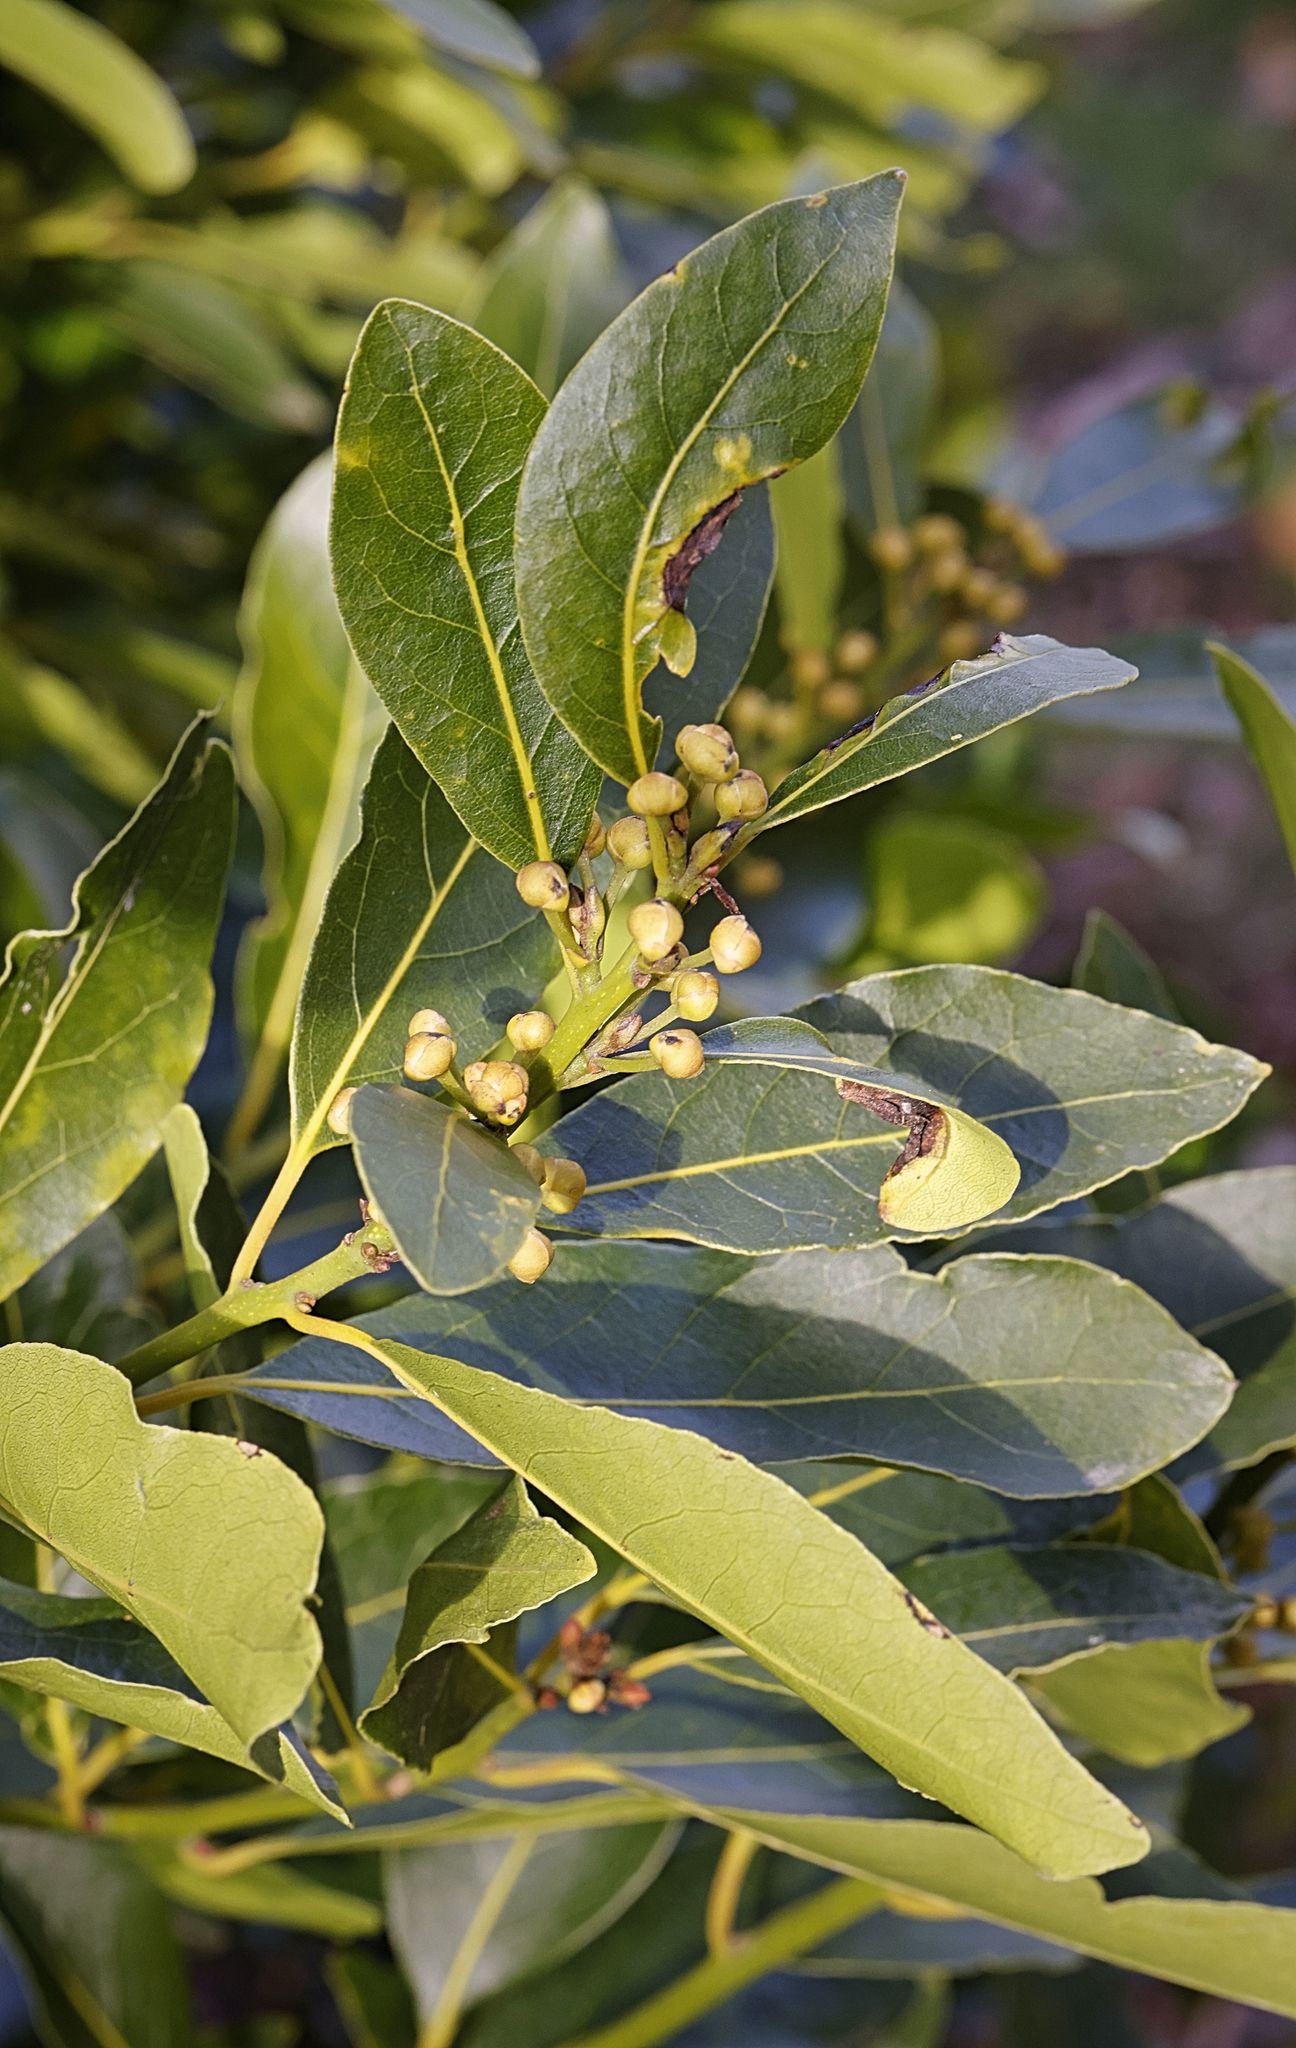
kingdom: Plantae
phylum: Tracheophyta
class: Magnoliopsida
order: Laurales
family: Lauraceae
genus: Laurus
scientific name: Laurus nobilis
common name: Bay
